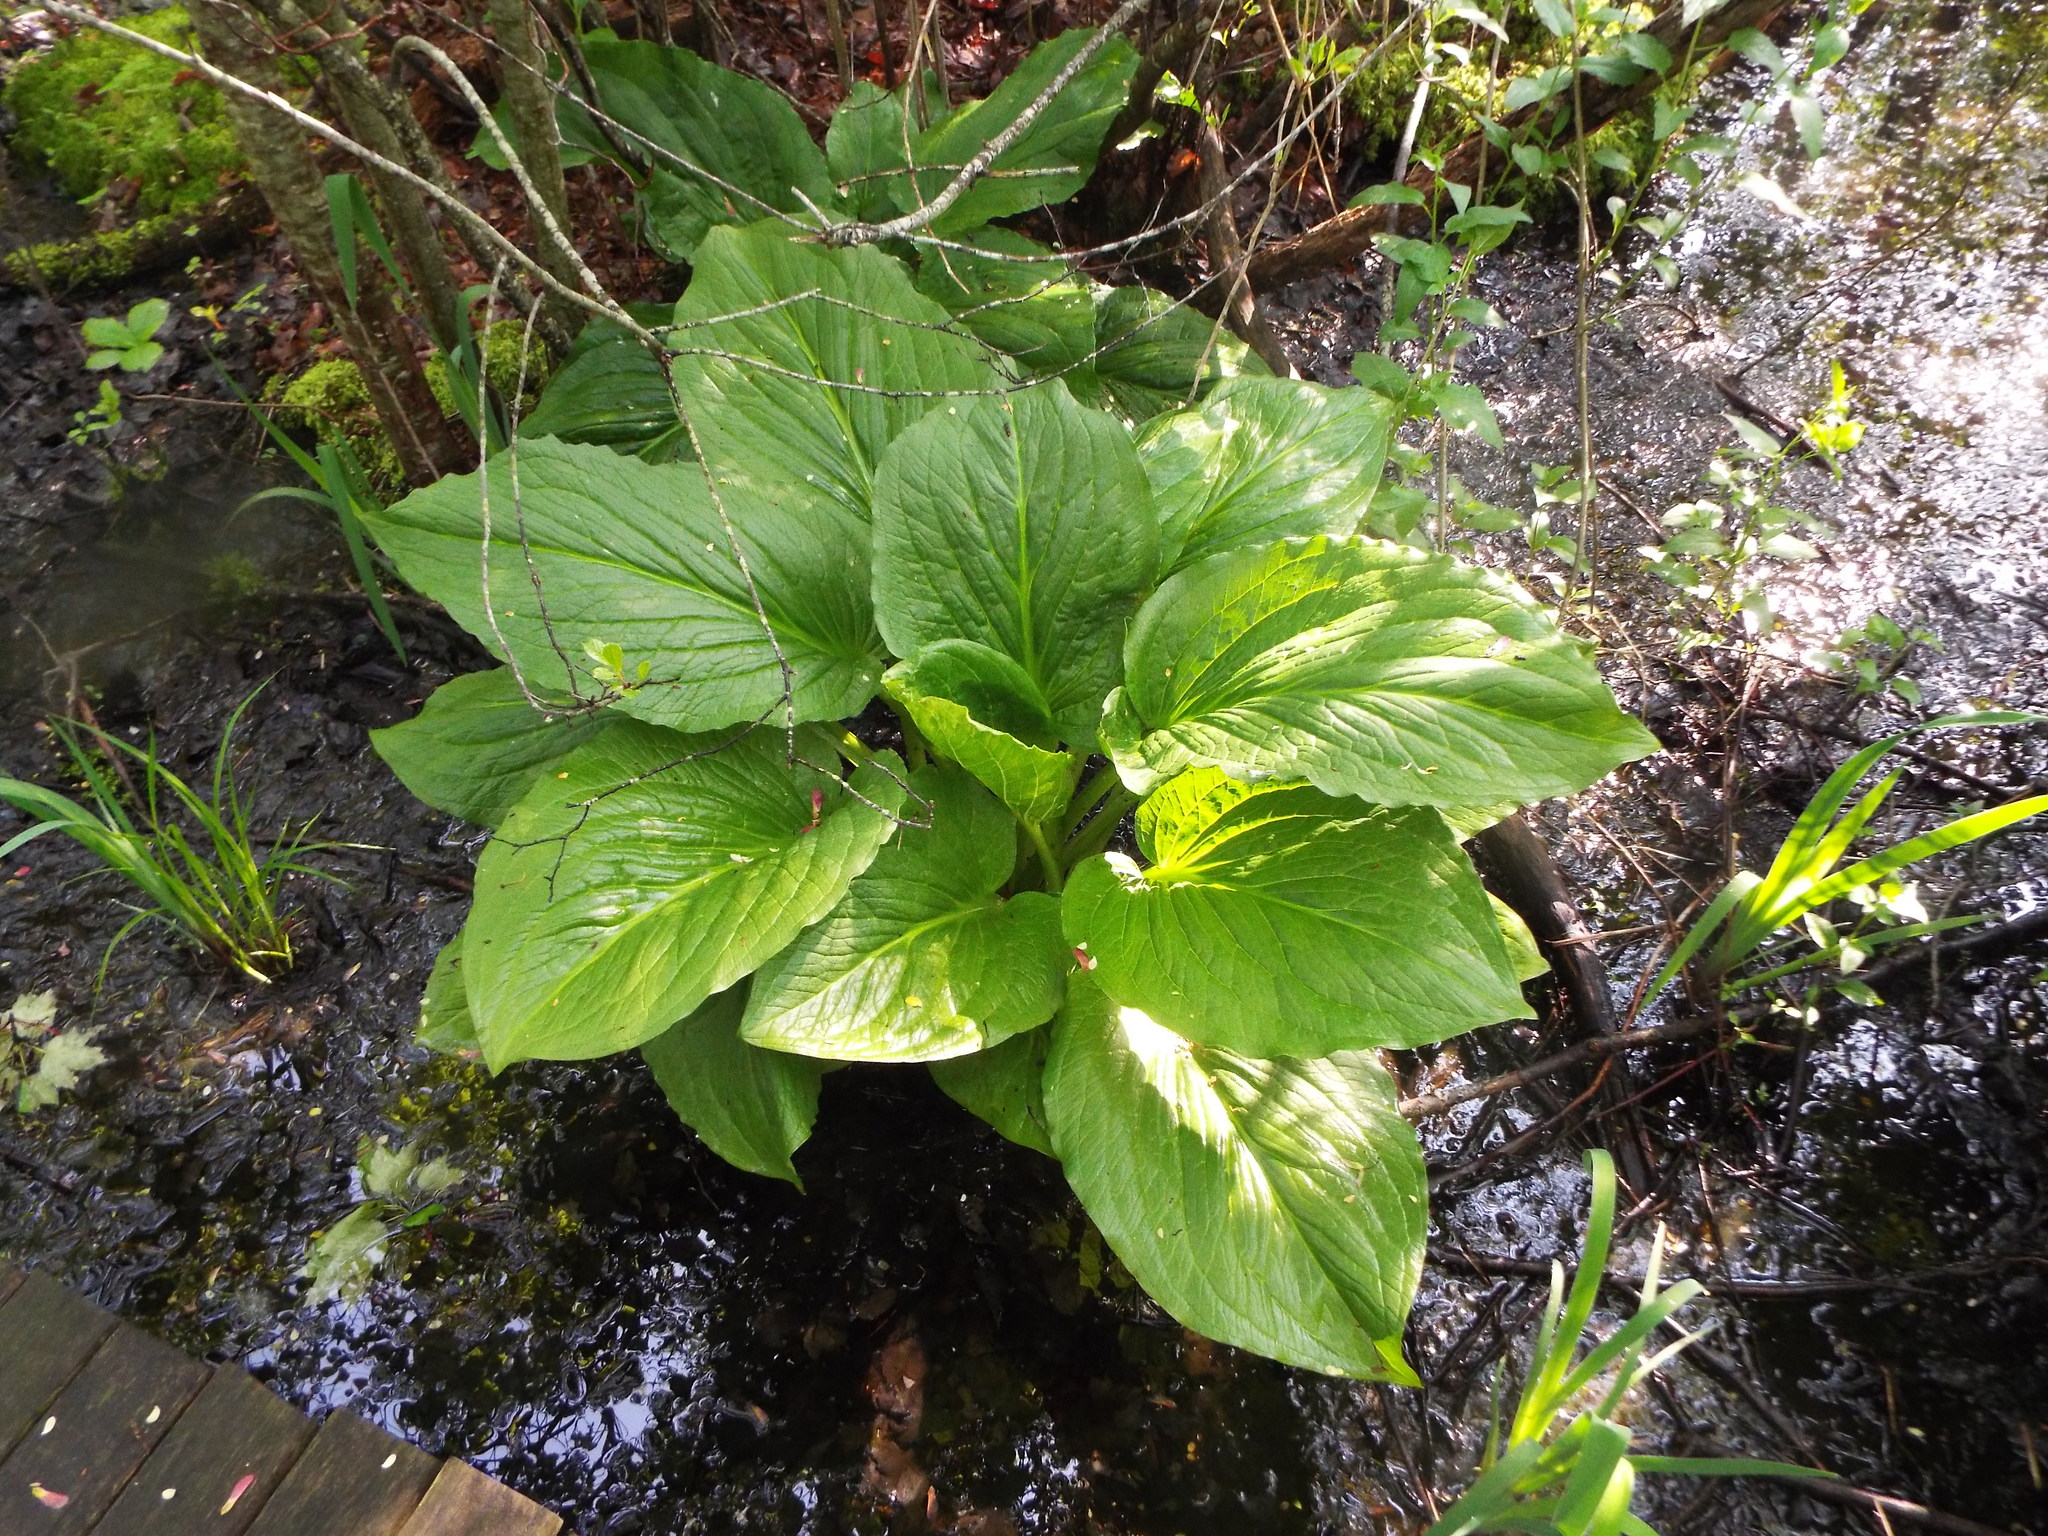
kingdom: Plantae
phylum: Tracheophyta
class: Liliopsida
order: Alismatales
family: Araceae
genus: Symplocarpus
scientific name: Symplocarpus foetidus
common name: Eastern skunk cabbage
